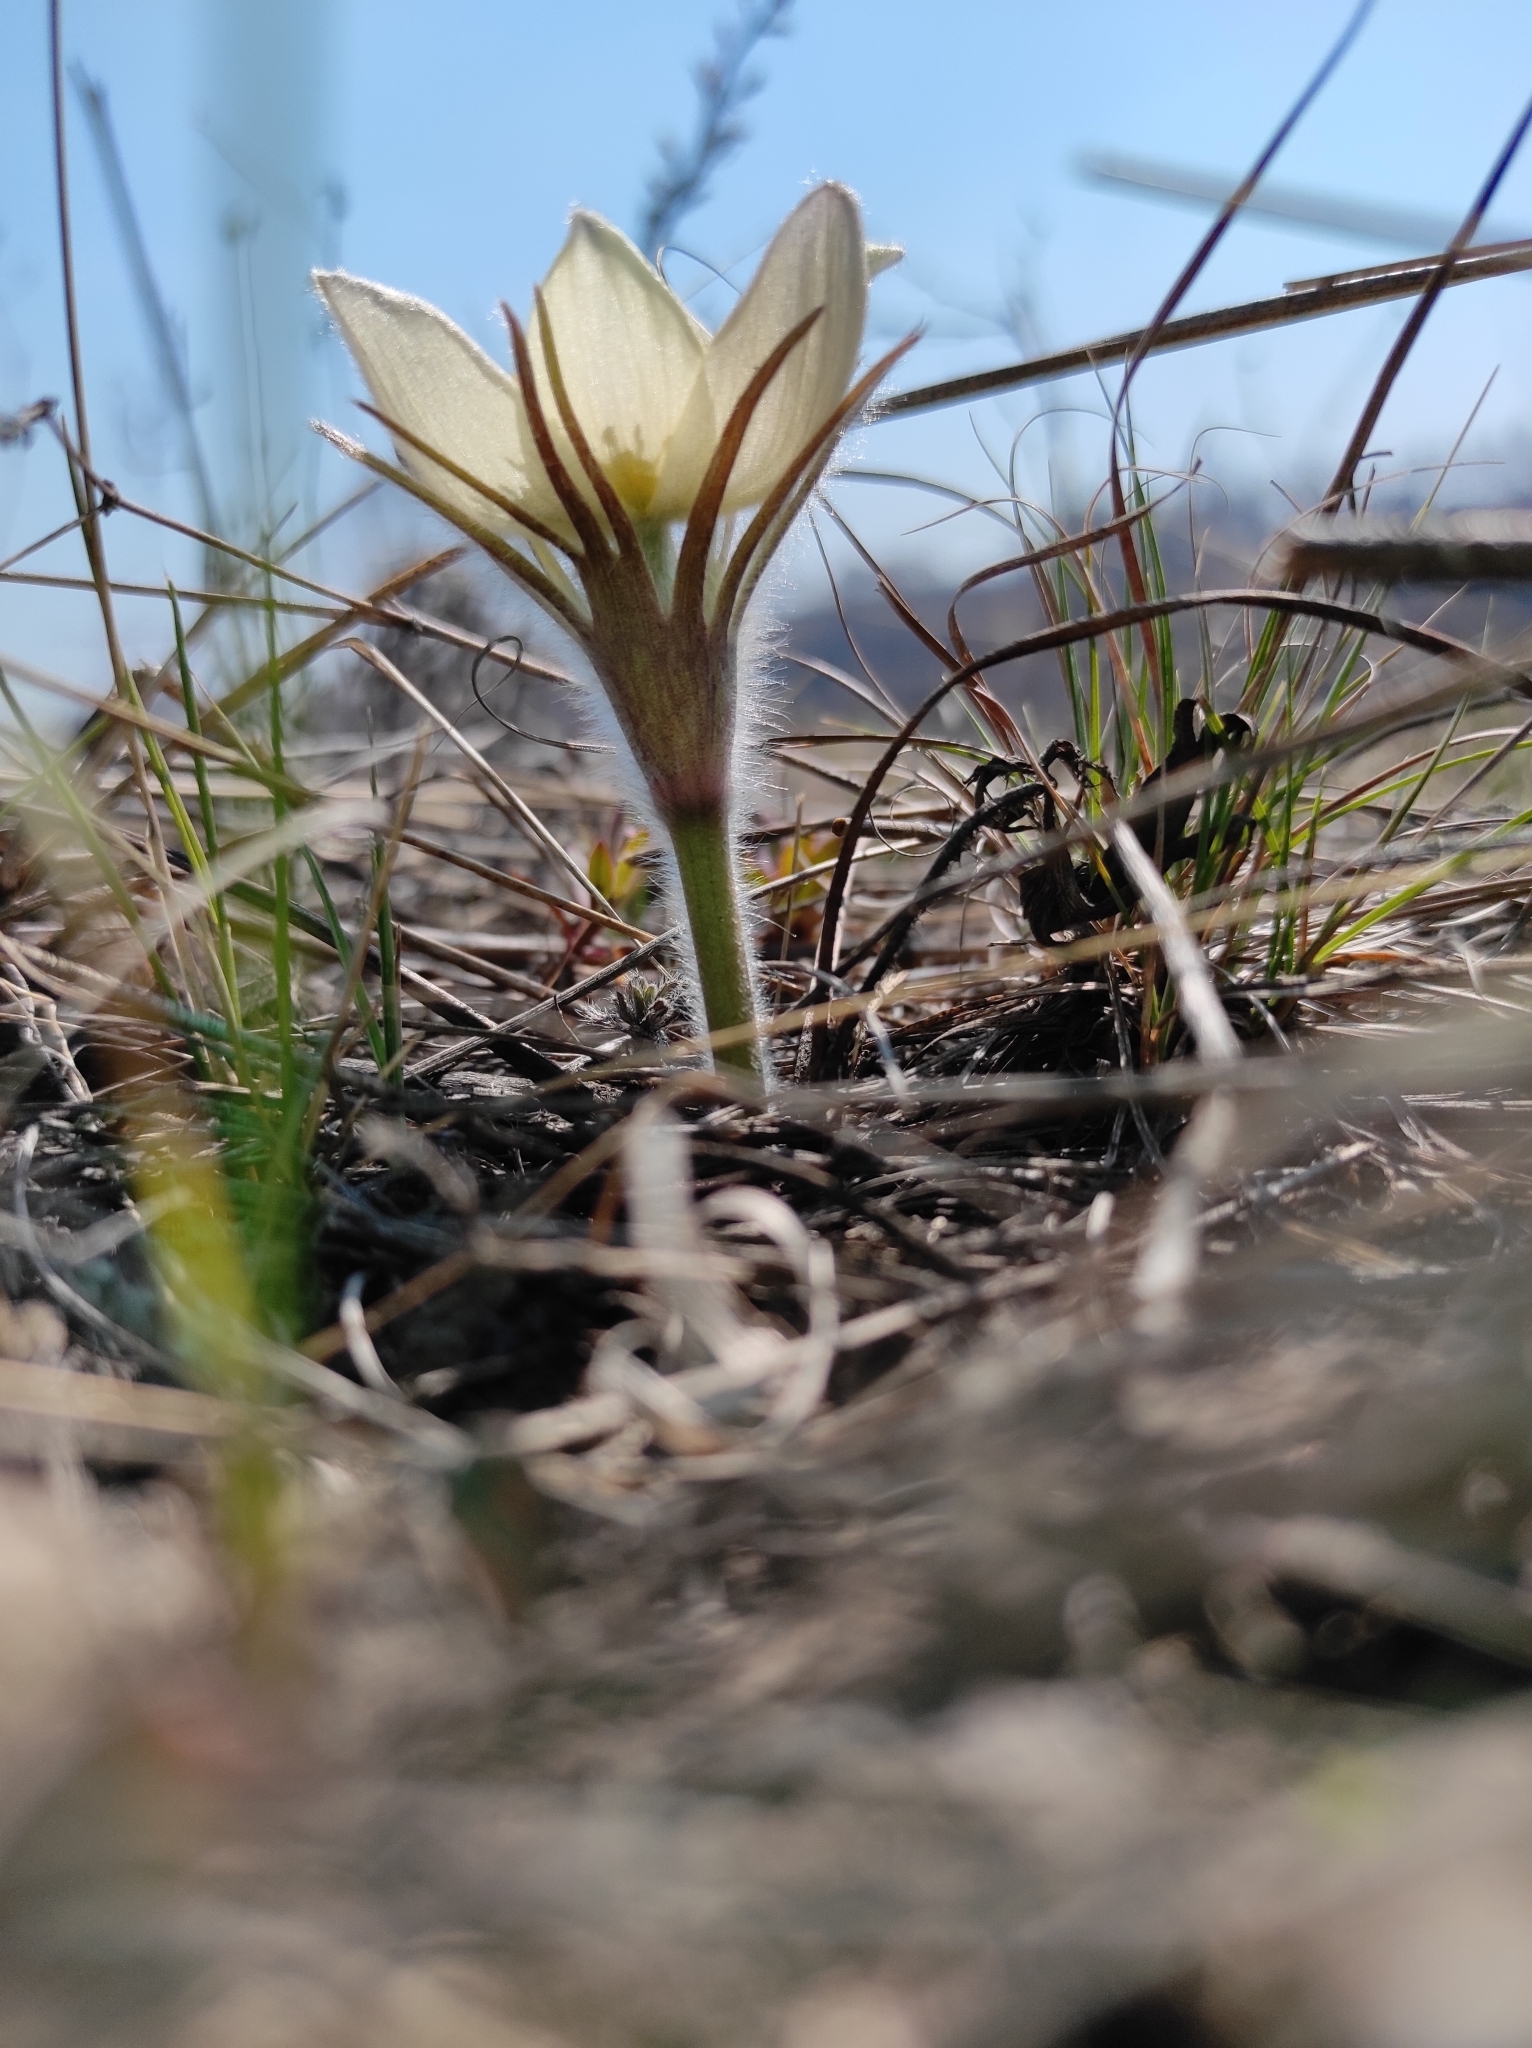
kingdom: Plantae
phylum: Tracheophyta
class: Magnoliopsida
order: Ranunculales
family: Ranunculaceae
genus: Pulsatilla
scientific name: Pulsatilla patens
